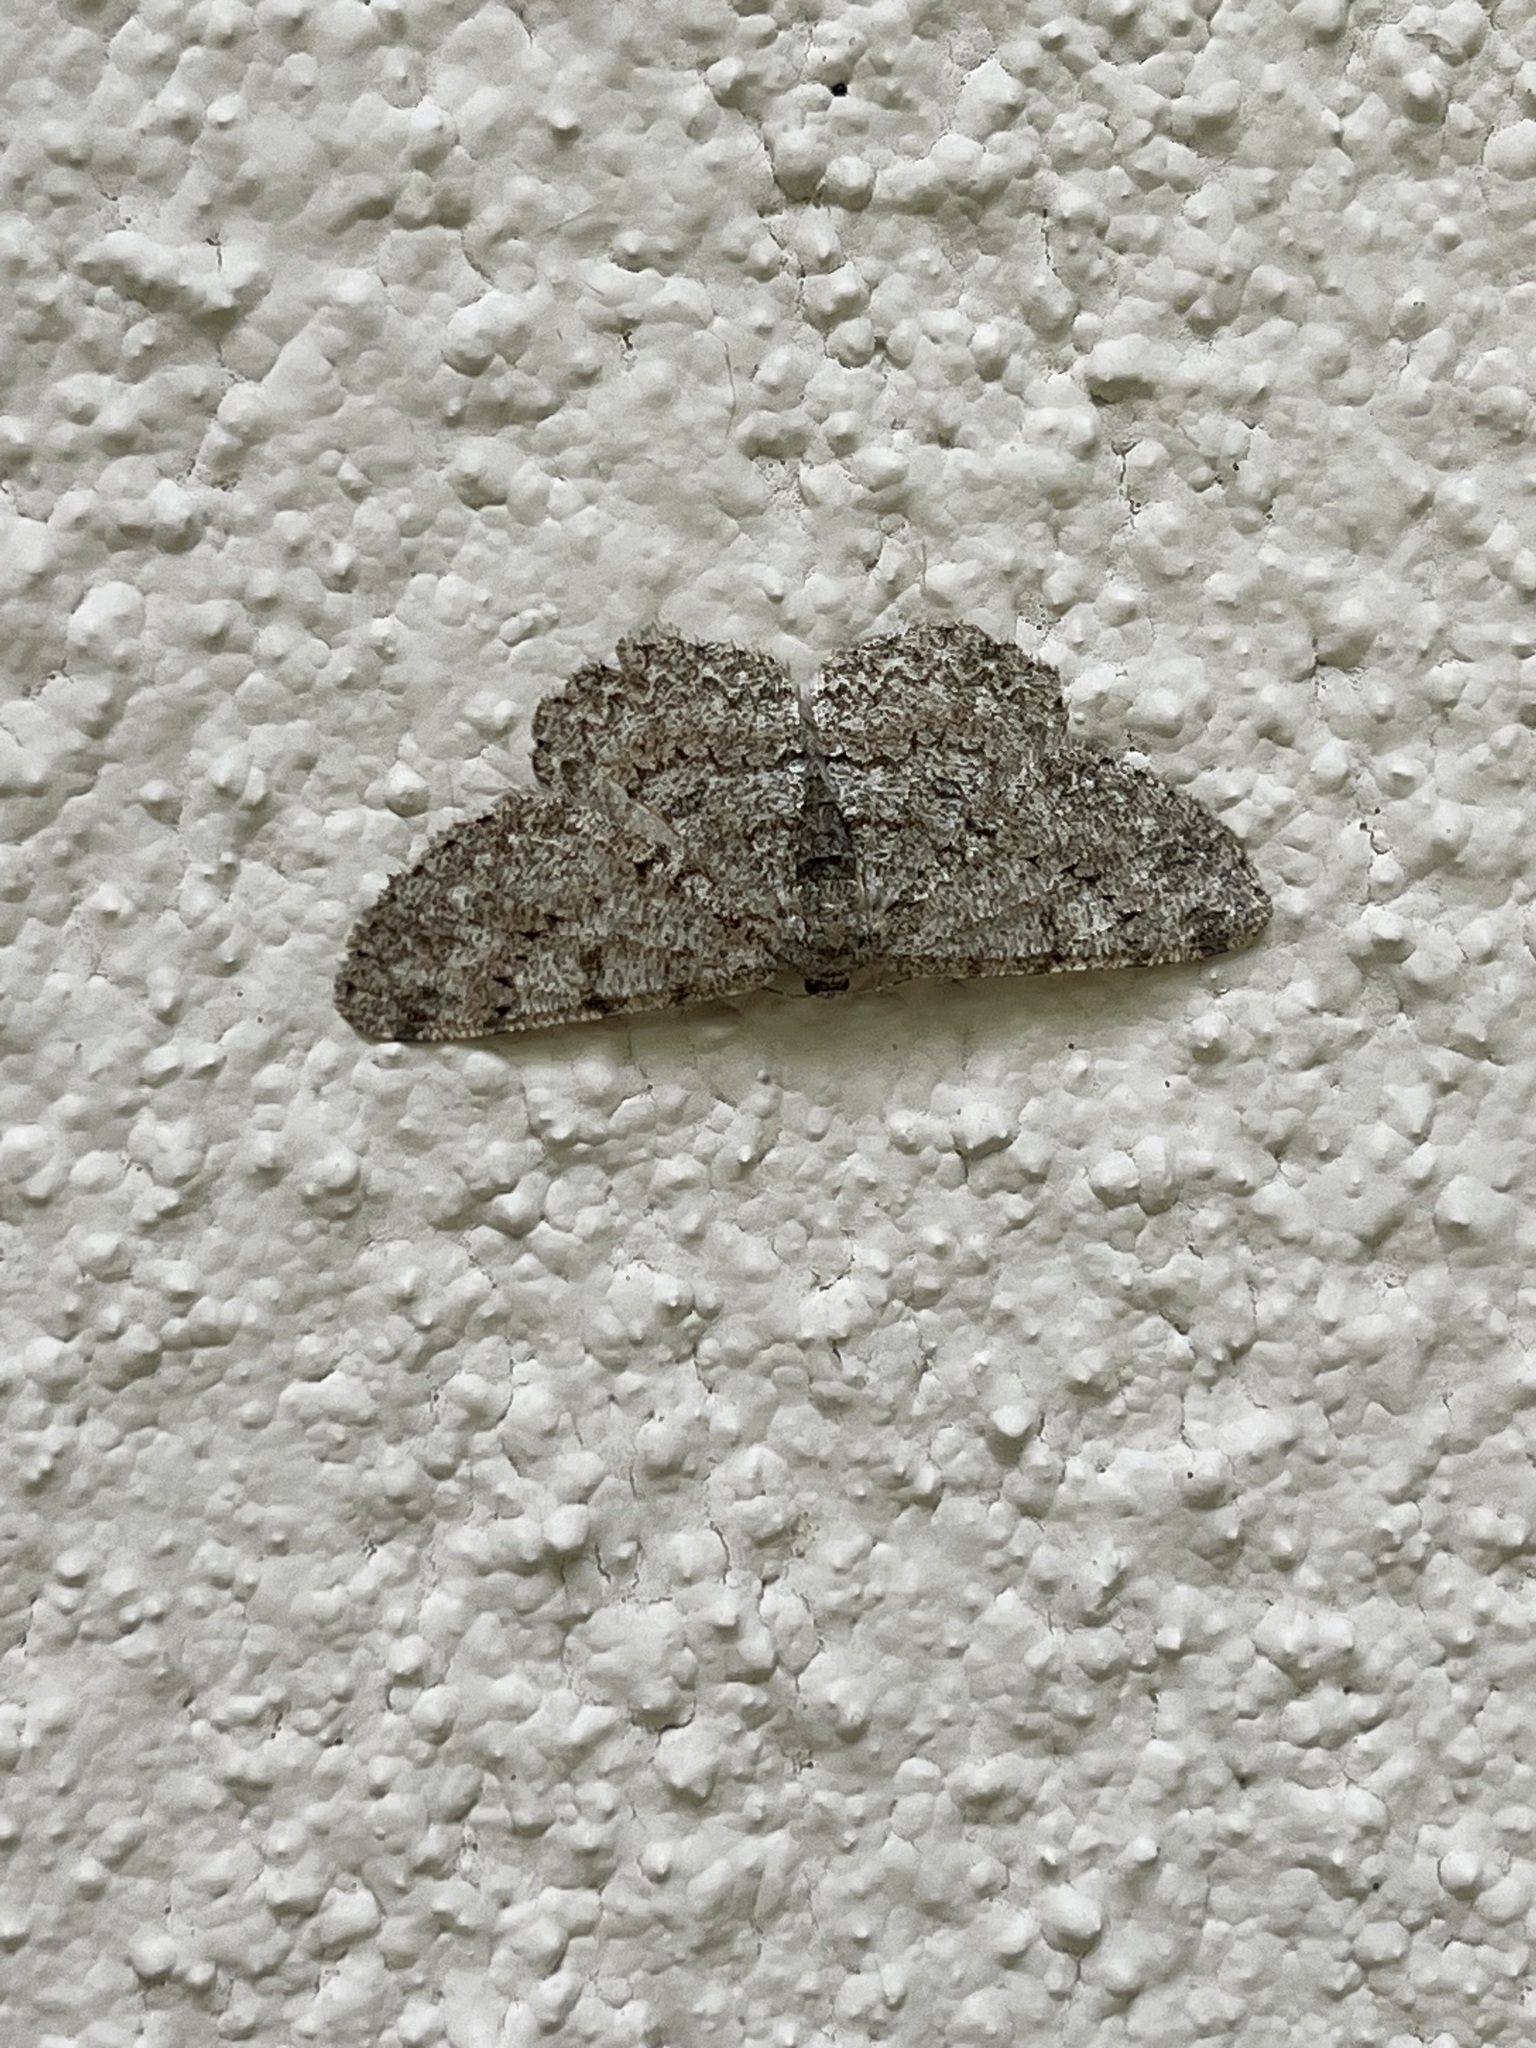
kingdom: Animalia
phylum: Arthropoda
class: Insecta
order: Lepidoptera
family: Geometridae
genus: Hypomecis
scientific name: Hypomecis punctinalis
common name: Pale oak beauty
